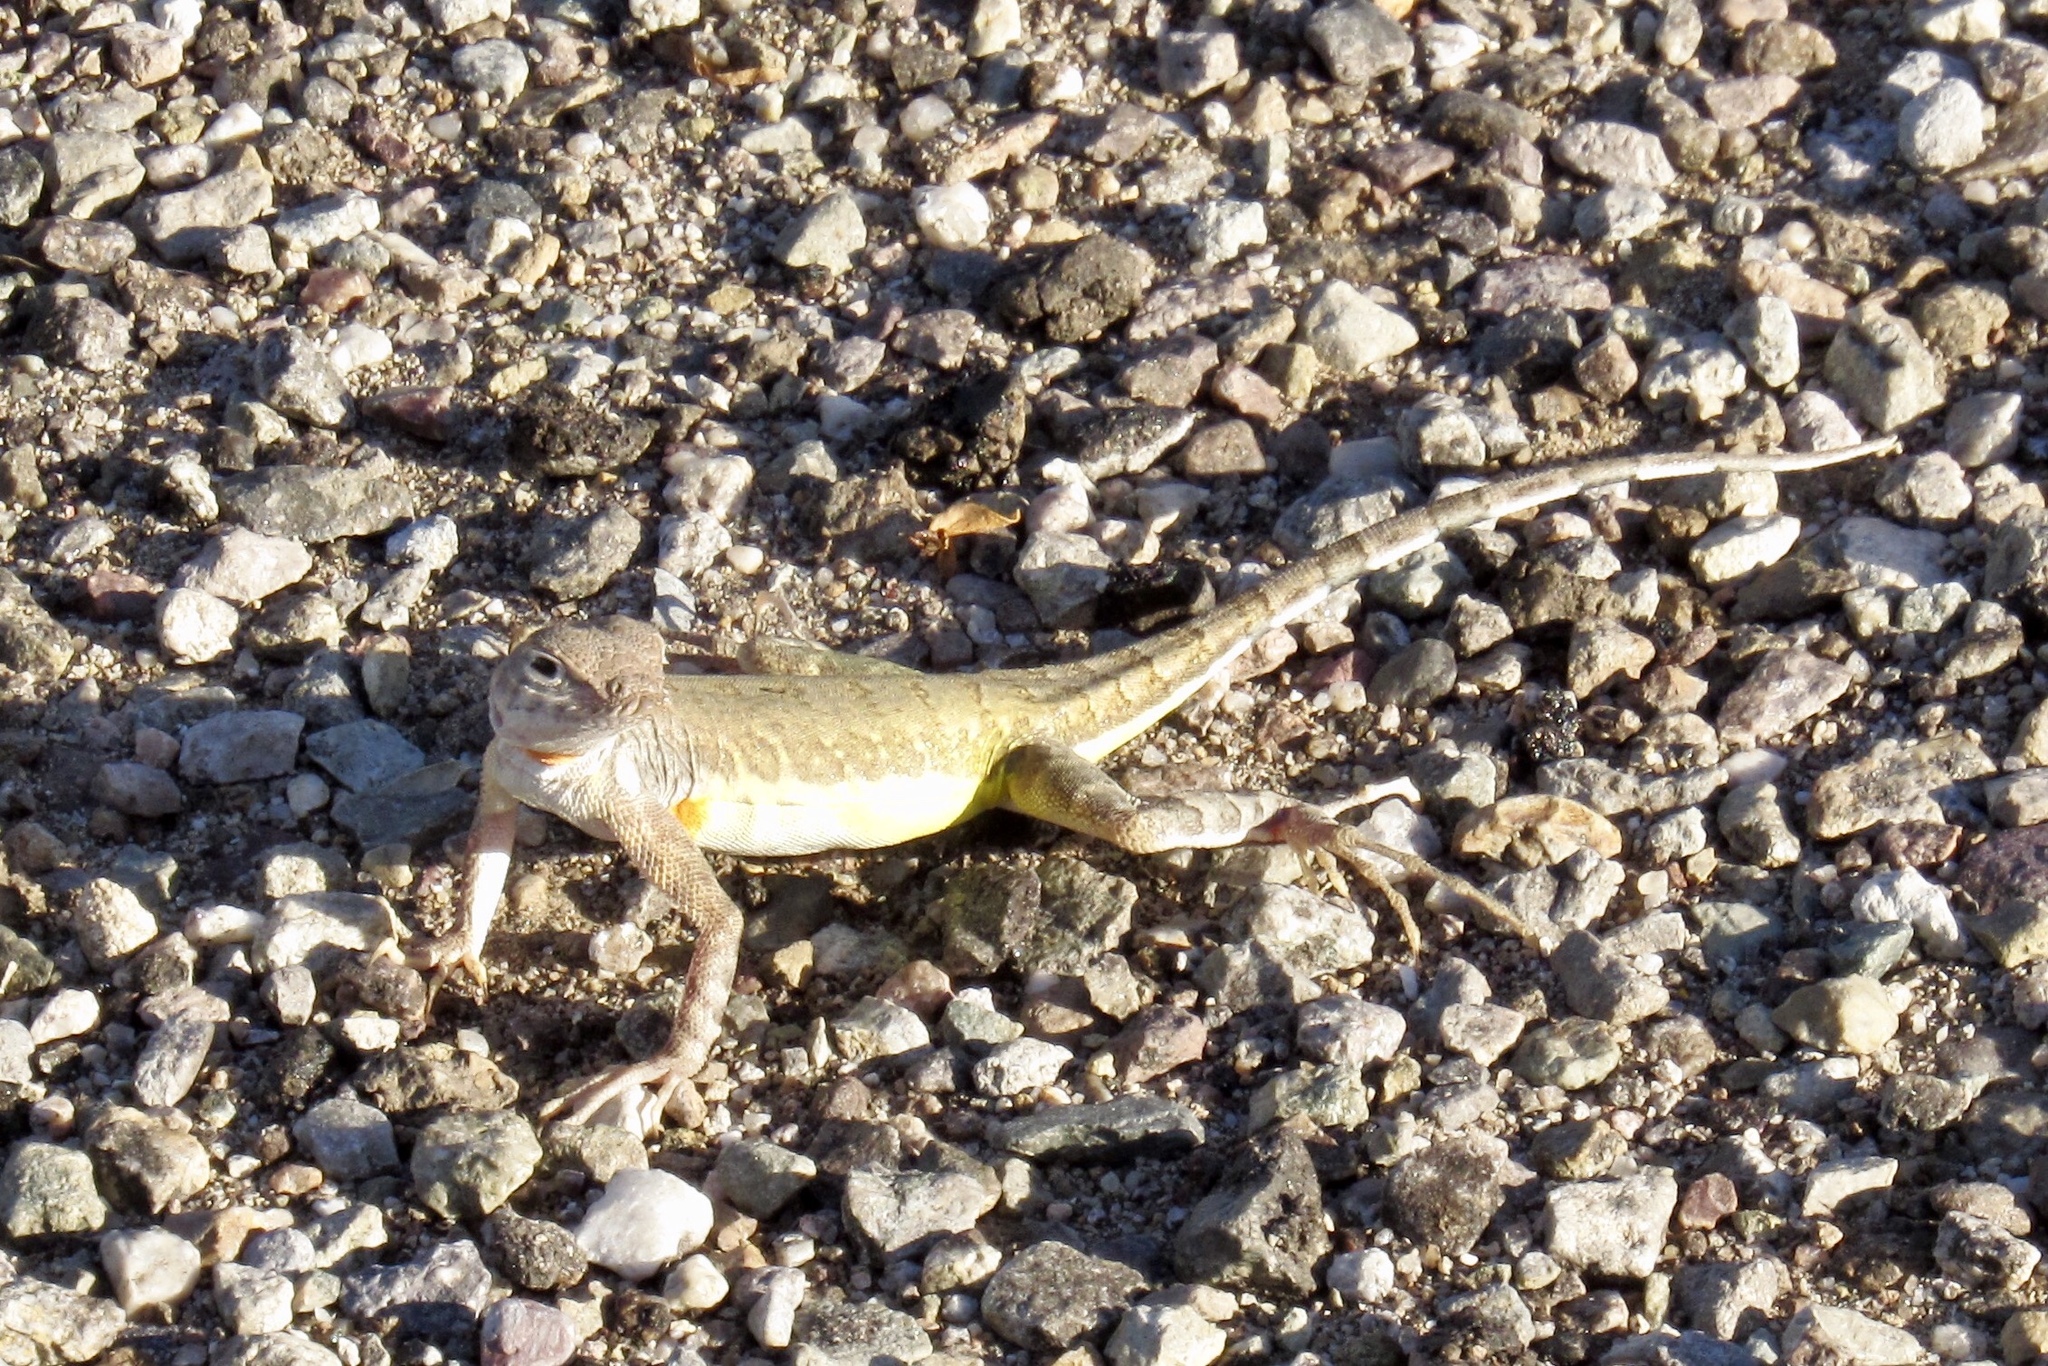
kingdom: Animalia
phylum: Chordata
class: Squamata
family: Phrynosomatidae
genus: Callisaurus
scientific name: Callisaurus draconoides
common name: Zebra-tailed lizard
